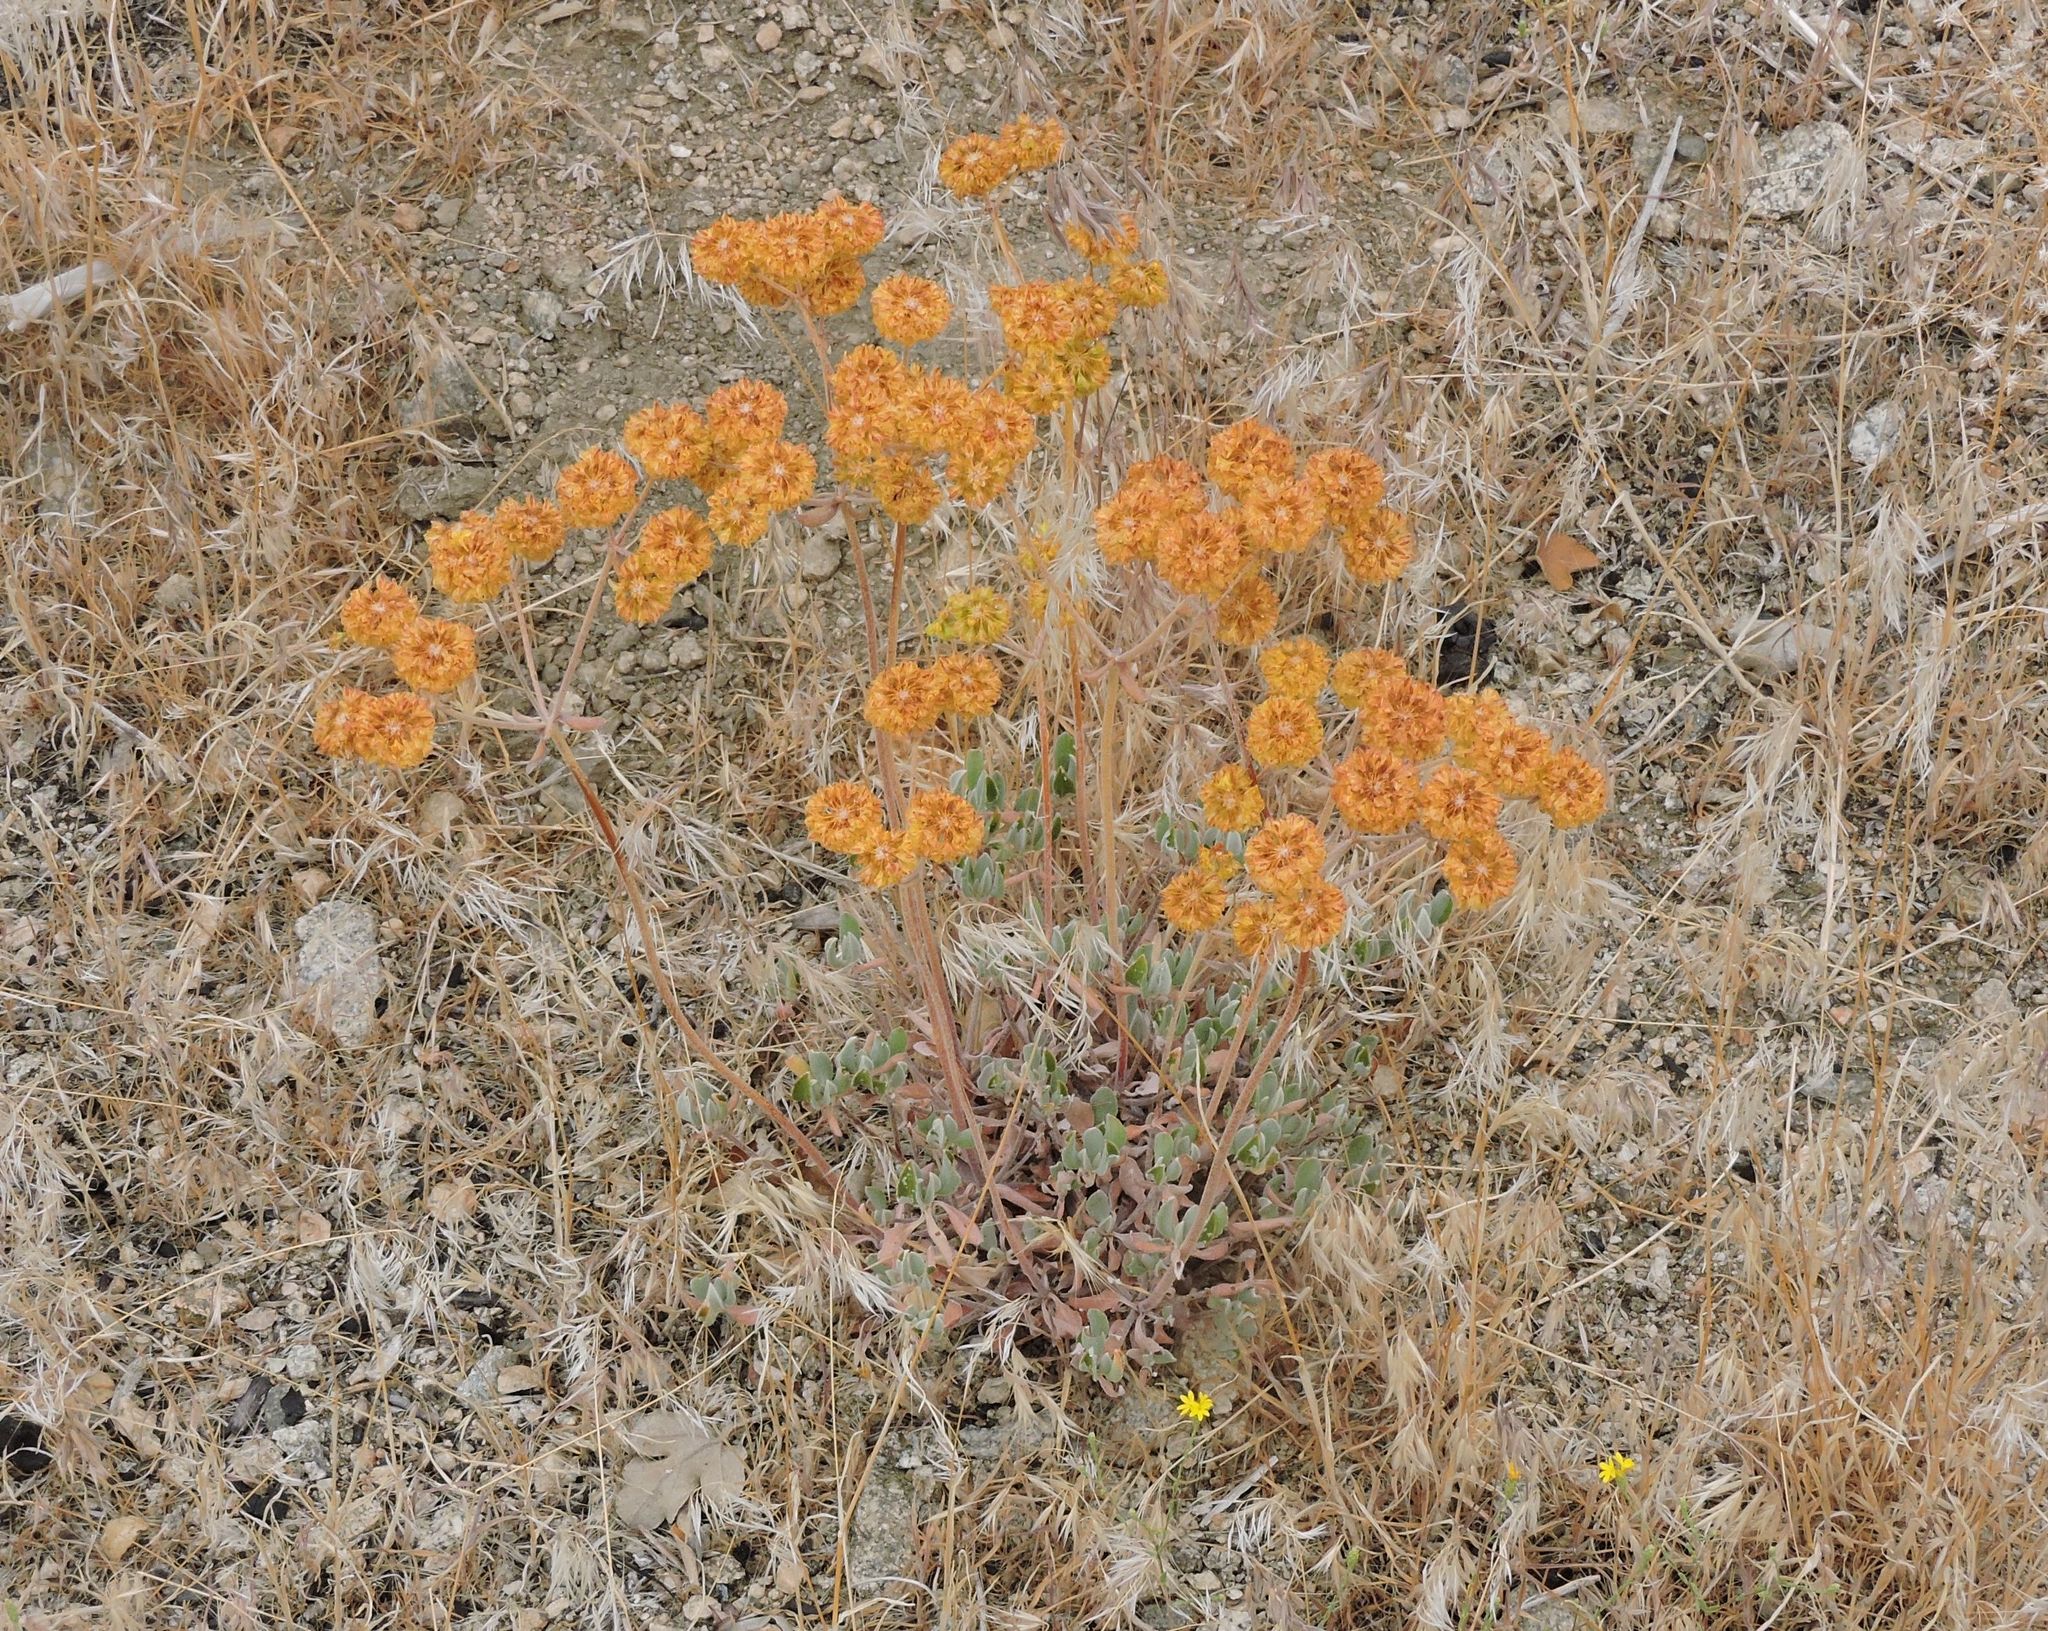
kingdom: Plantae
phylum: Tracheophyta
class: Magnoliopsida
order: Caryophyllales
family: Polygonaceae
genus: Eriogonum
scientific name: Eriogonum umbellatum
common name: Sulfur-buckwheat
